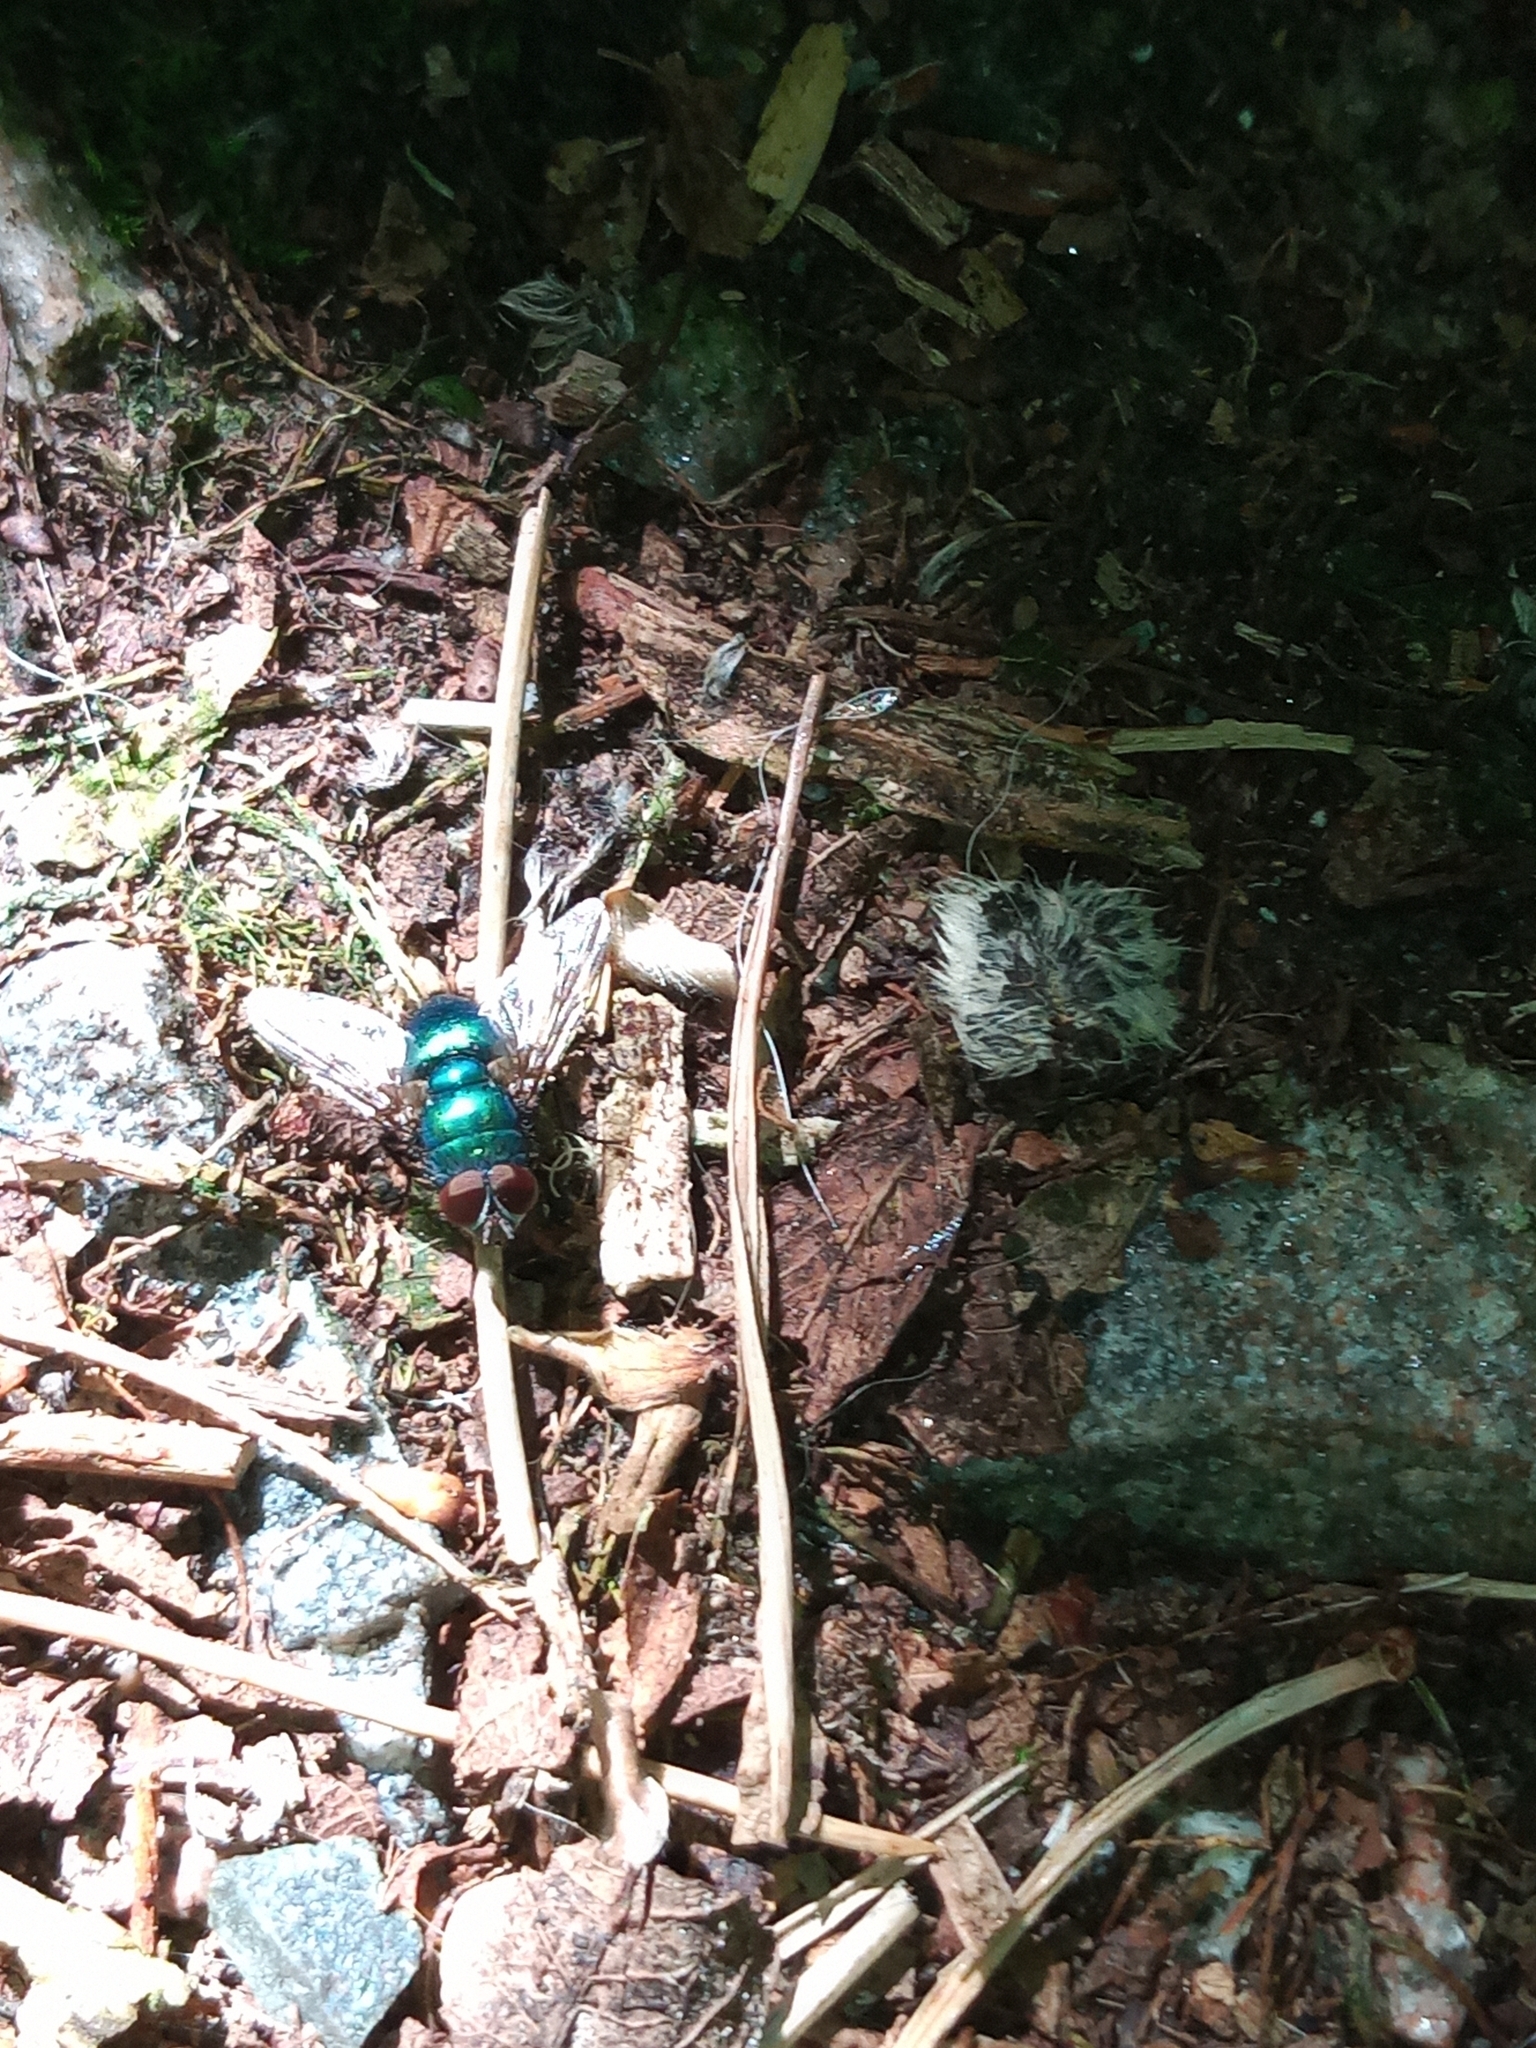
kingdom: Animalia
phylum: Arthropoda
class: Insecta
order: Diptera
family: Calliphoridae
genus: Lucilia
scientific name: Lucilia
